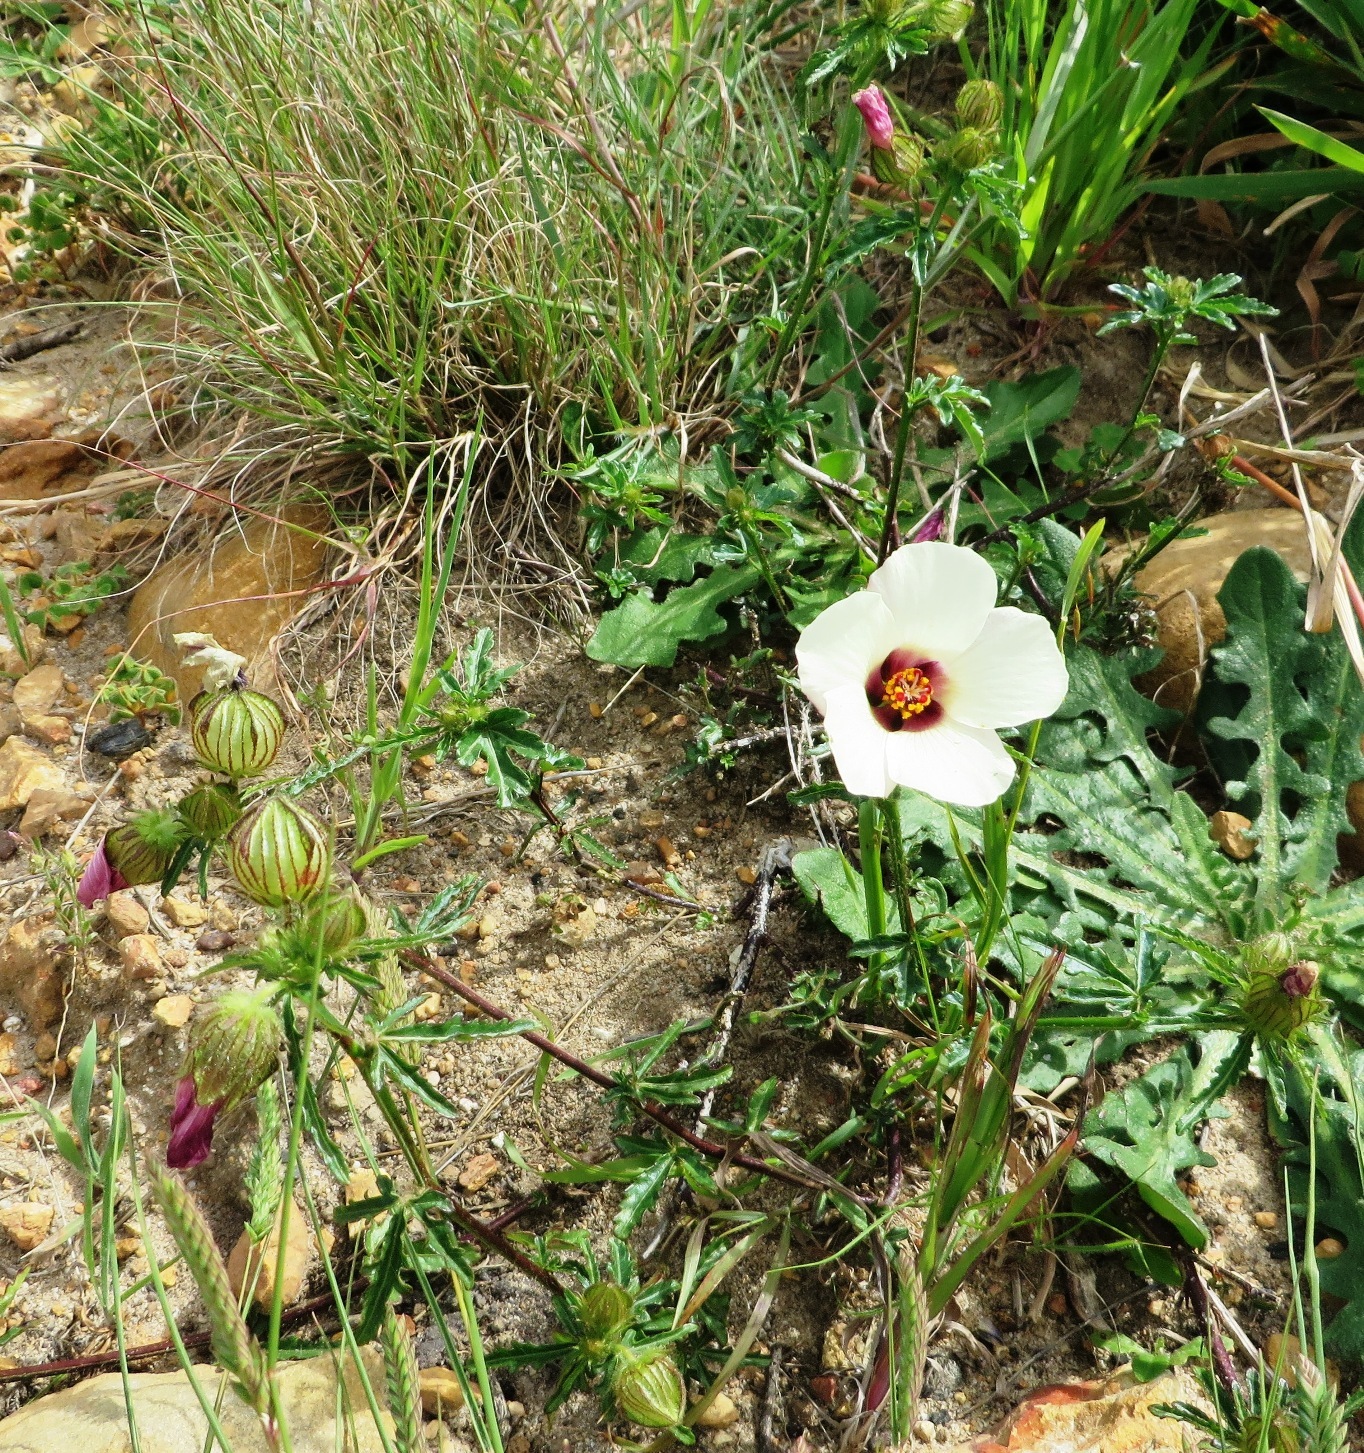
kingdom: Plantae
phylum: Tracheophyta
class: Magnoliopsida
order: Malvales
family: Malvaceae
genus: Hibiscus
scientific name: Hibiscus trionum
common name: Bladder ketmia
